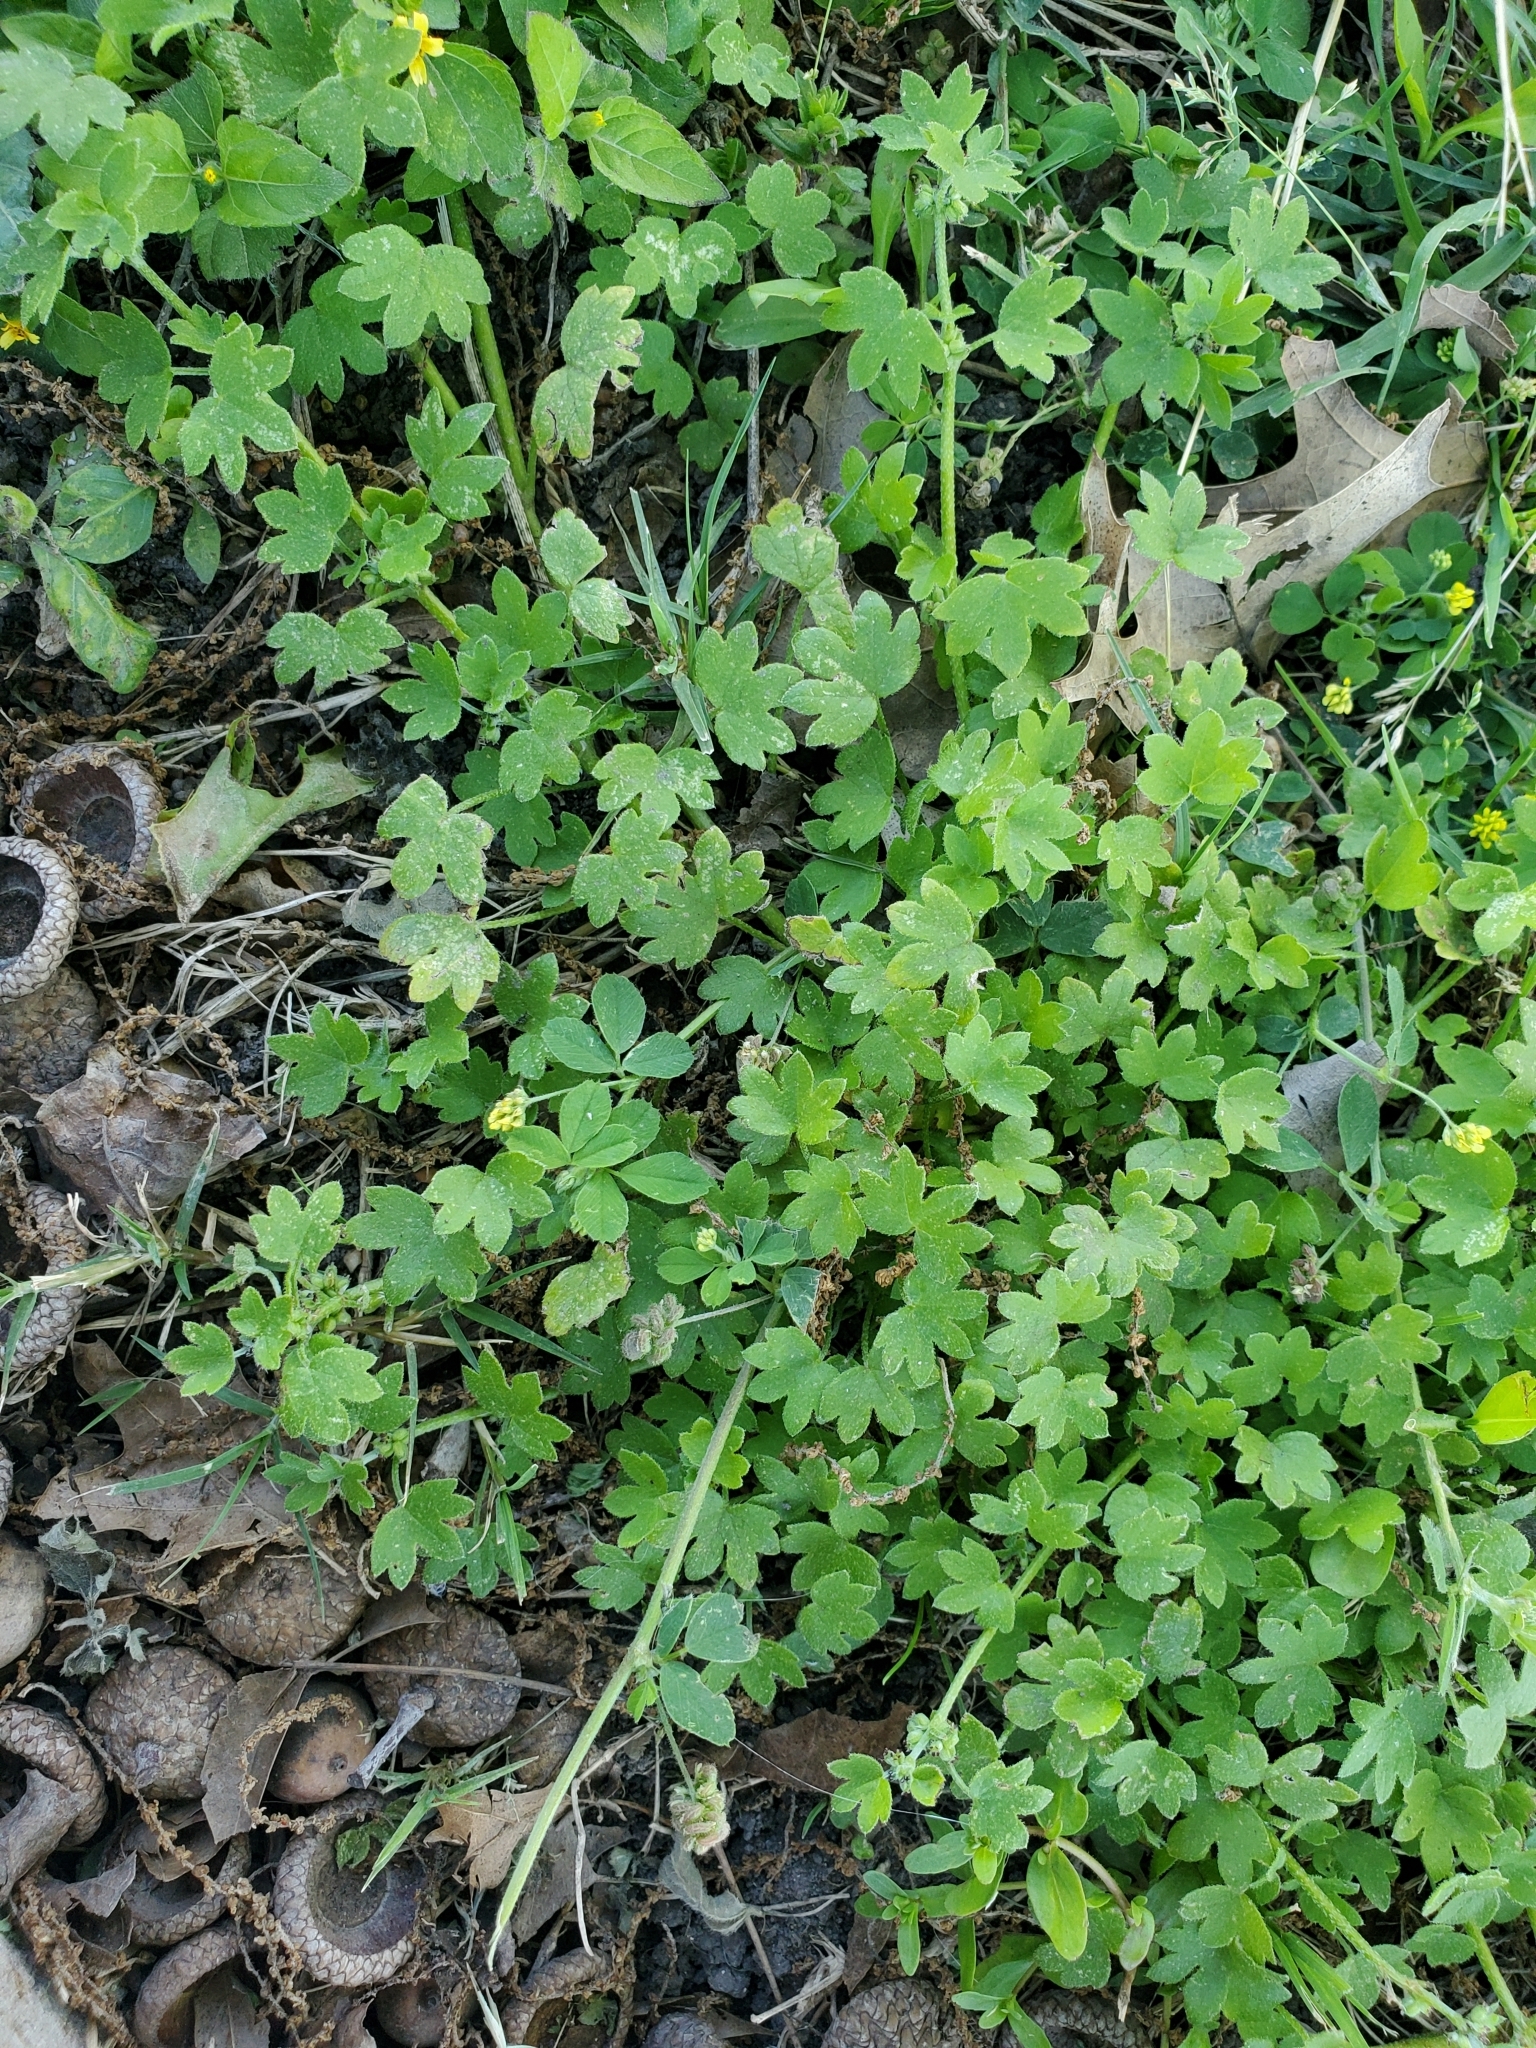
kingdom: Plantae
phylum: Tracheophyta
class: Magnoliopsida
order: Apiales
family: Apiaceae
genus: Bowlesia
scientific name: Bowlesia incana
